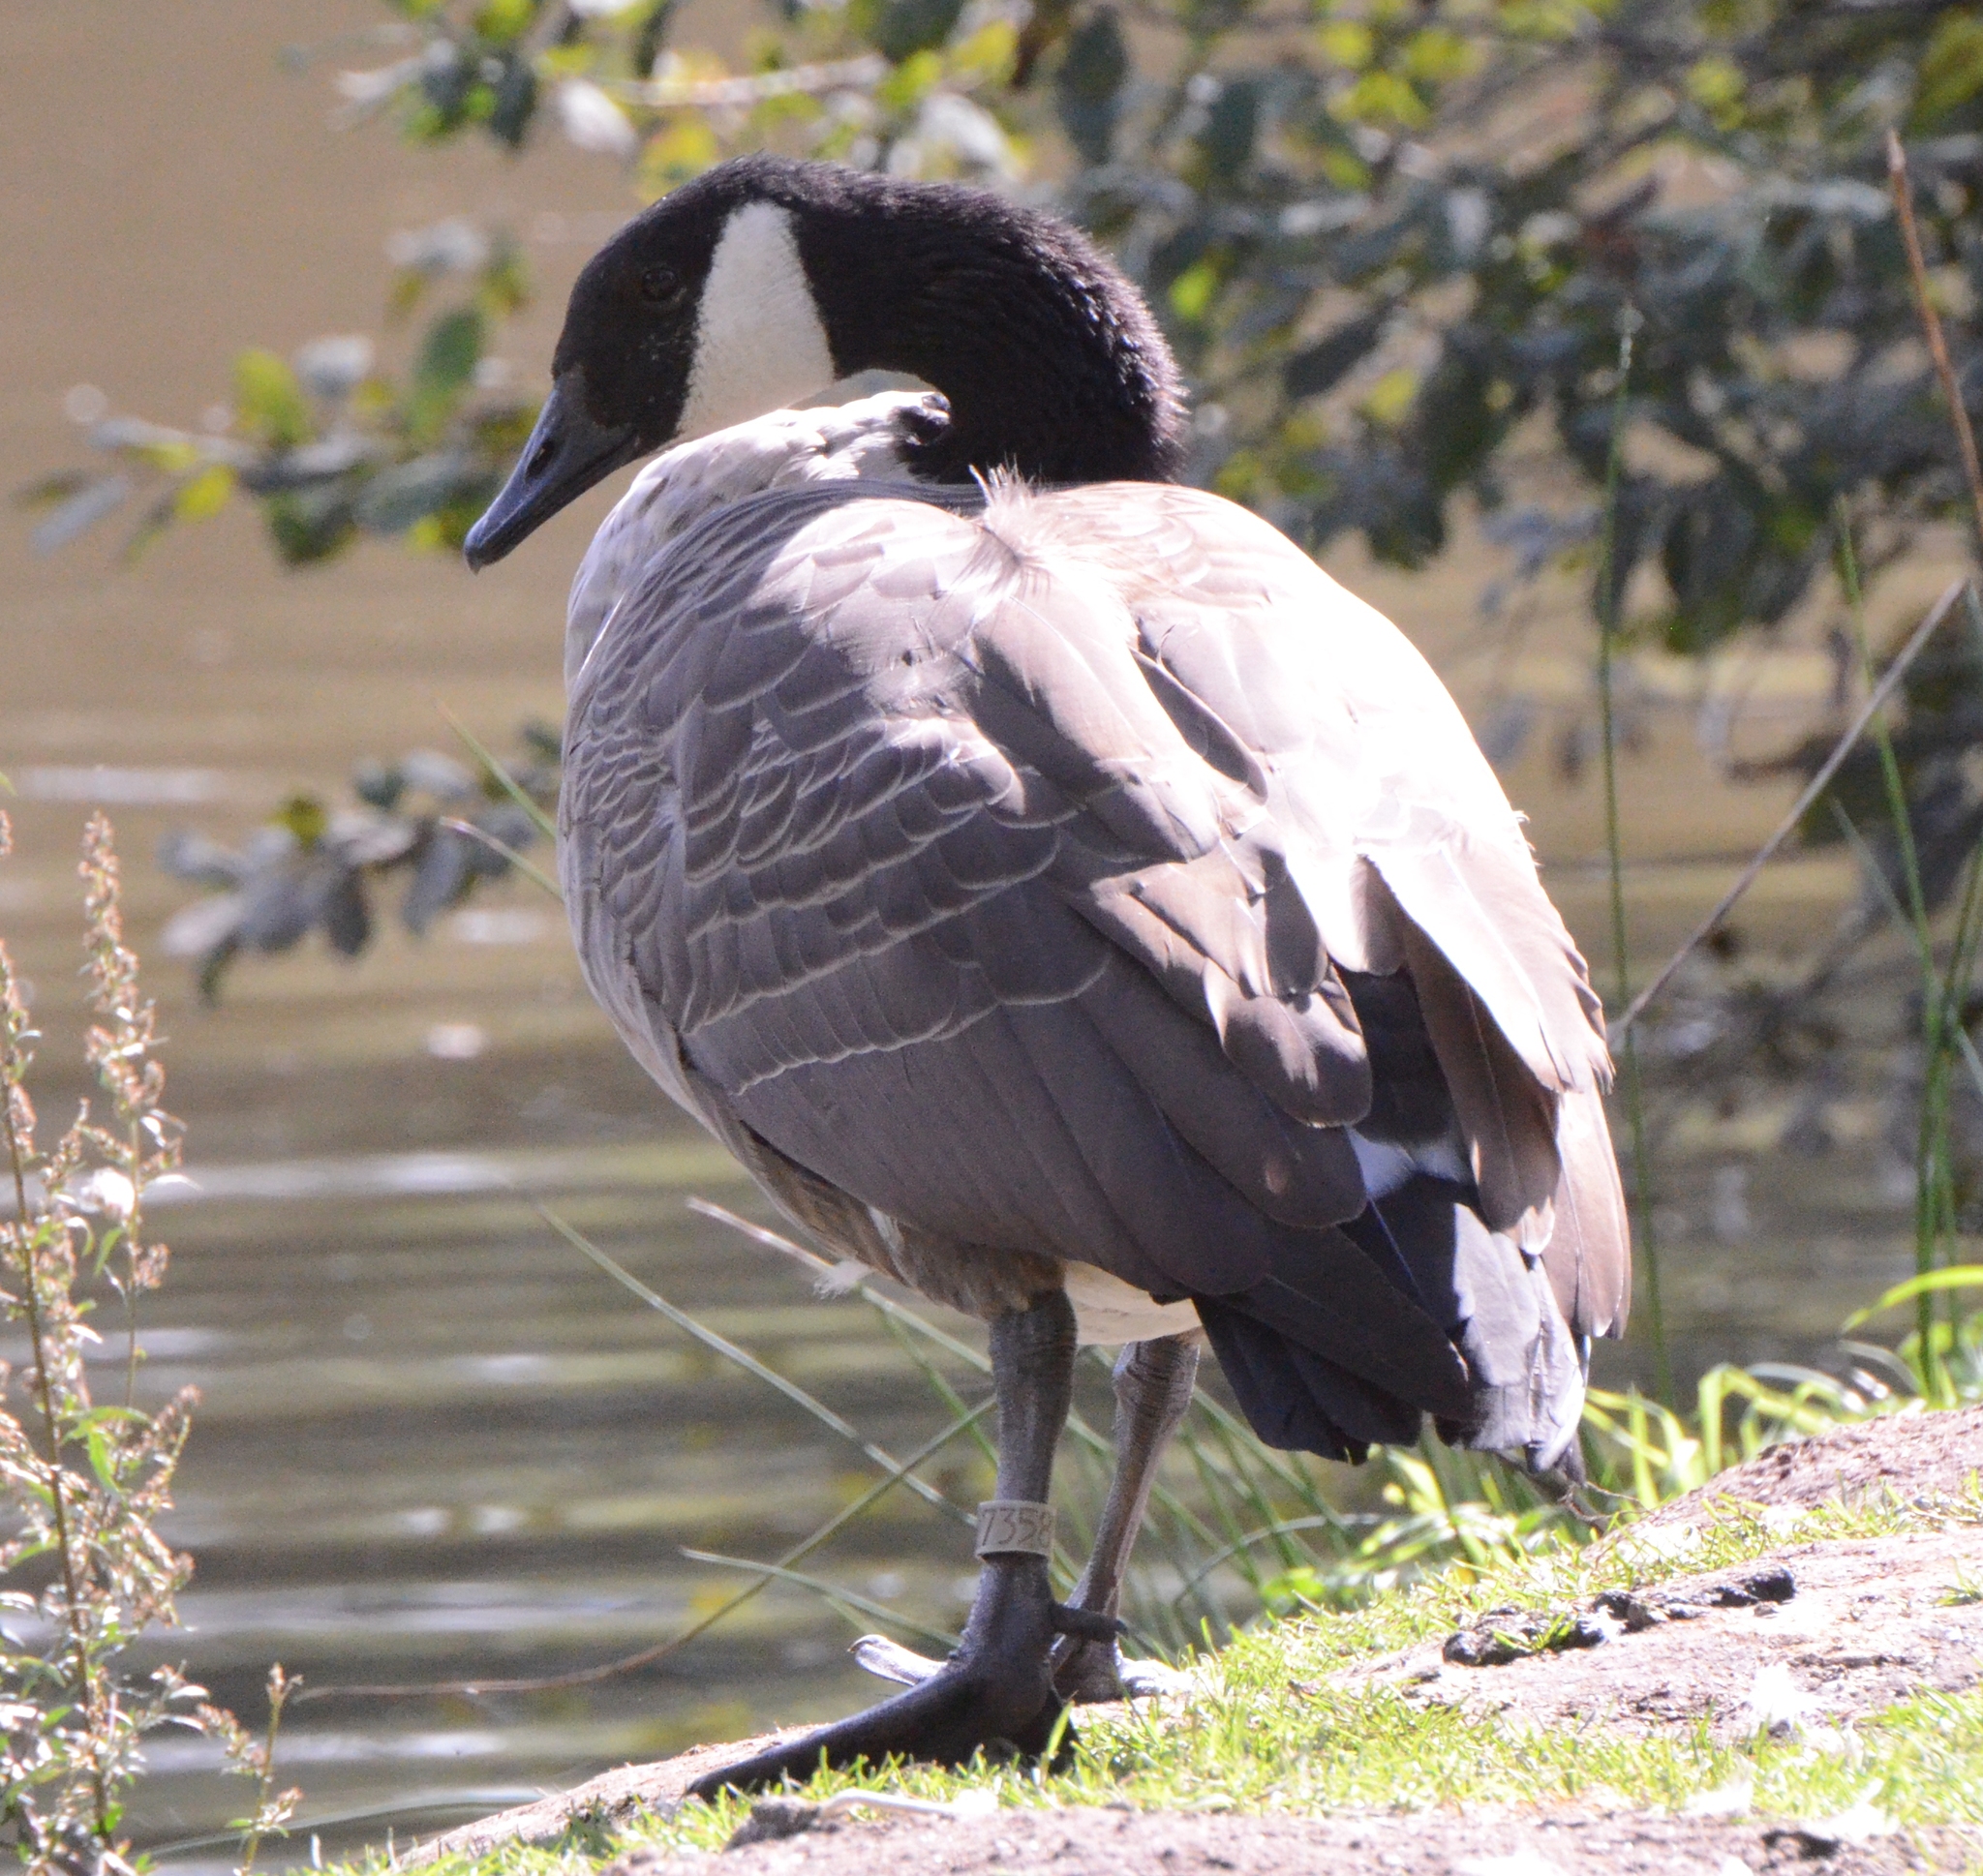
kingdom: Animalia
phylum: Chordata
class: Aves
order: Anseriformes
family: Anatidae
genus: Branta
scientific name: Branta canadensis
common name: Canada goose
